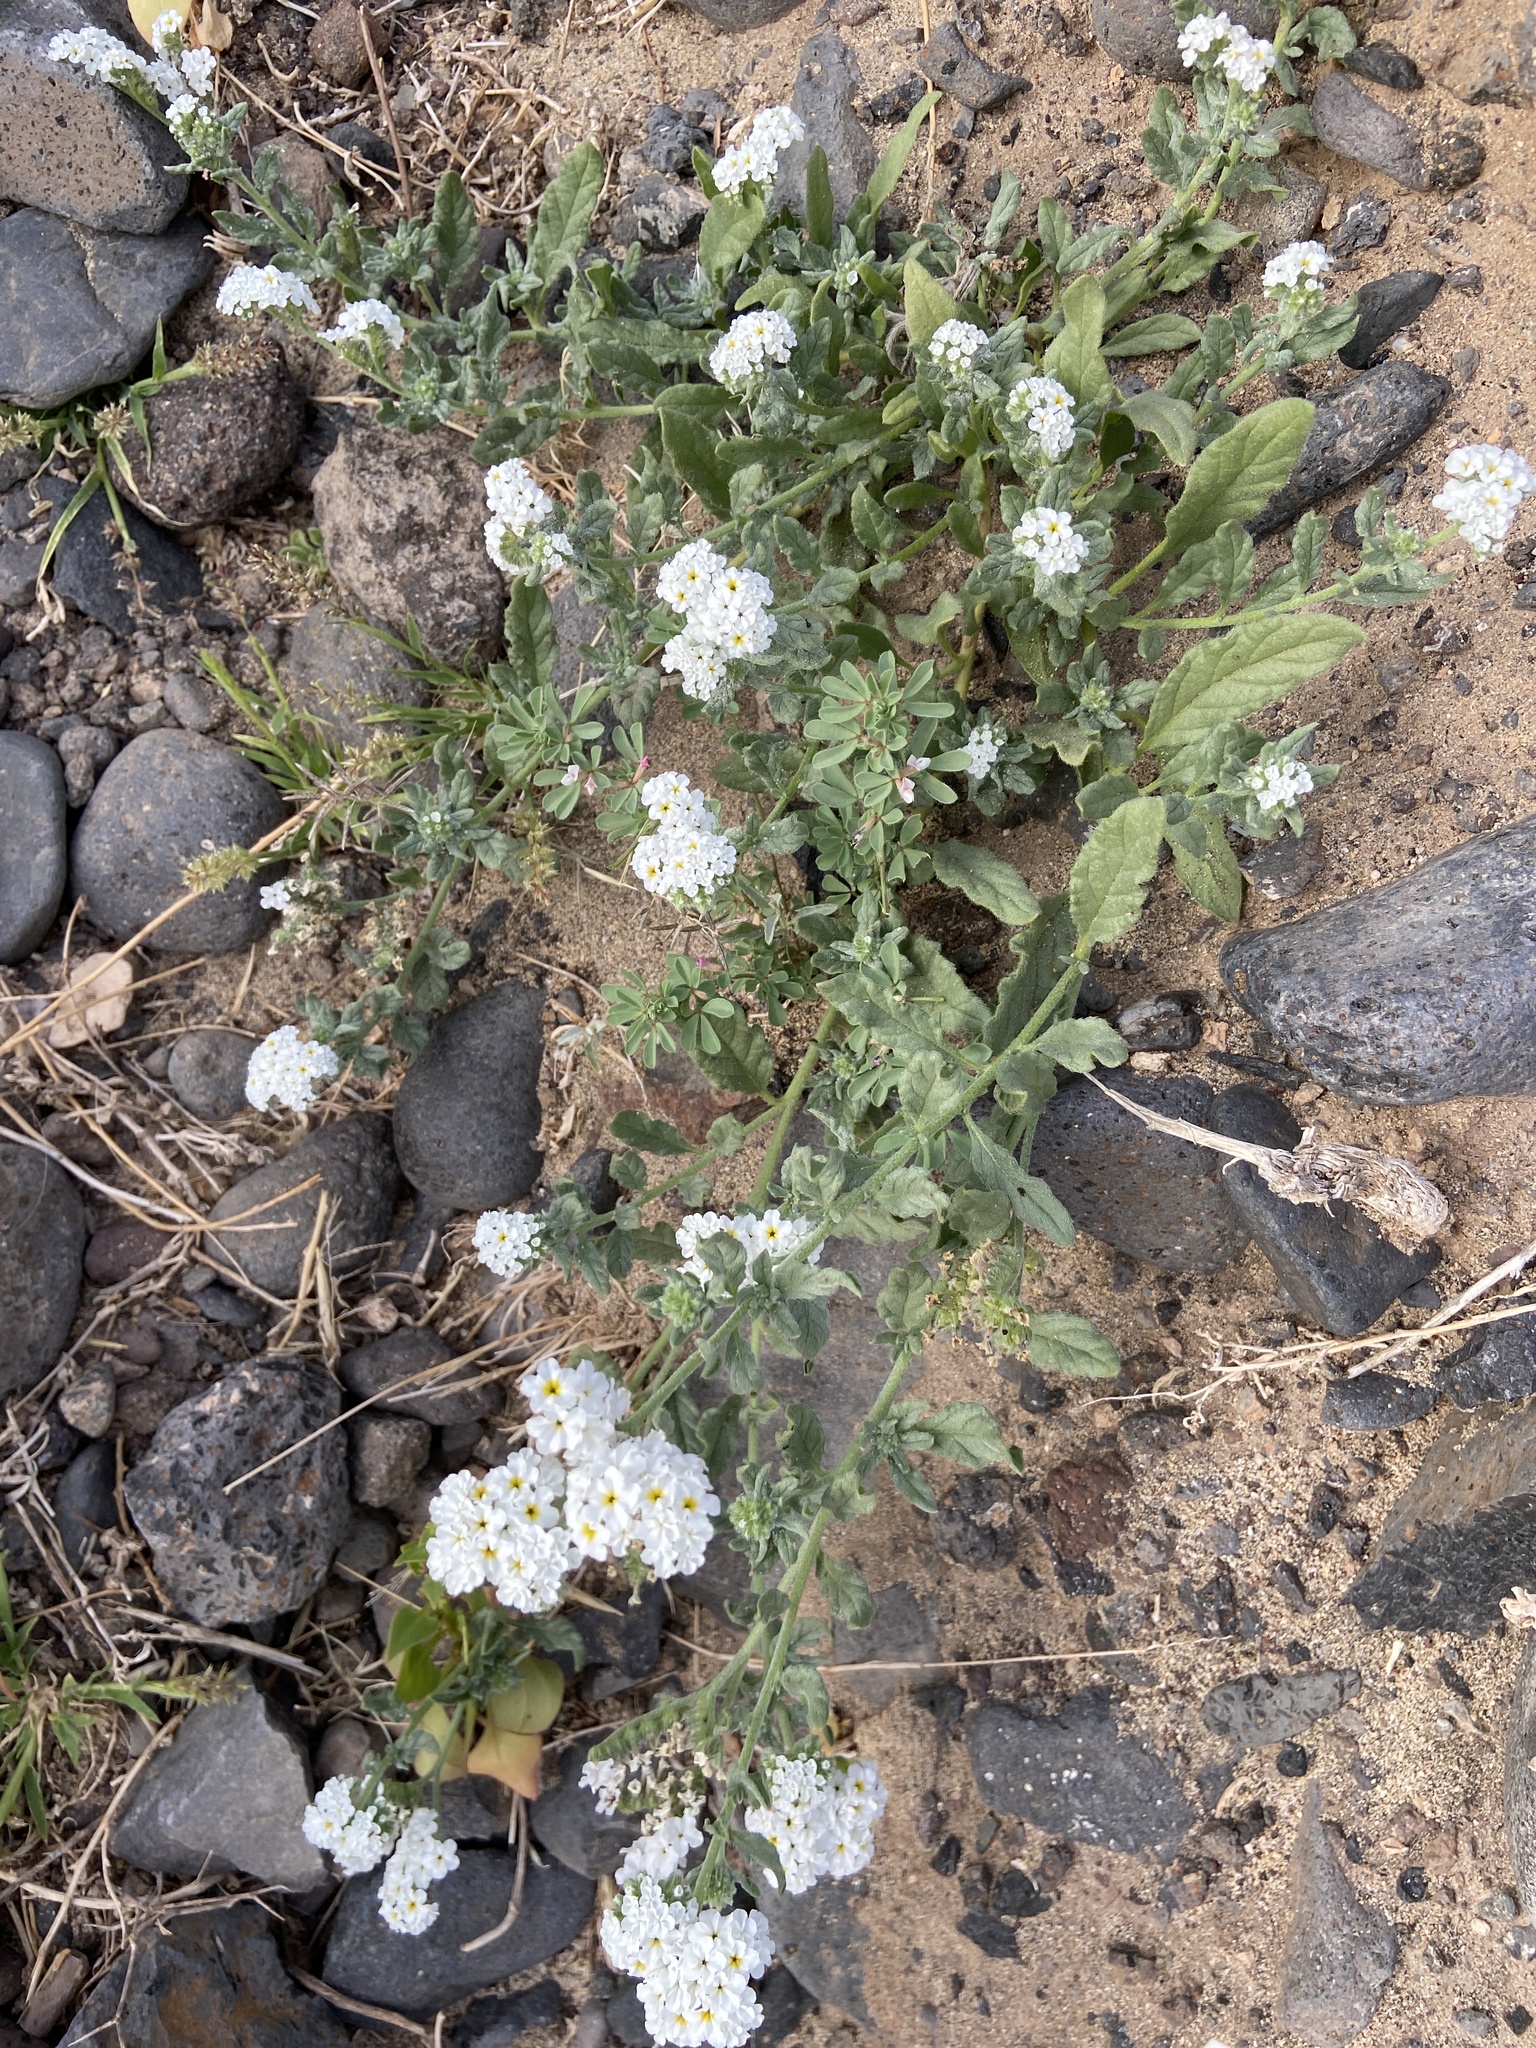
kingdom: Plantae
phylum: Tracheophyta
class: Magnoliopsida
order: Boraginales
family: Heliotropiaceae
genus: Heliotropium
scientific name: Heliotropium ramosissimum
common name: Wavy heliotrope
